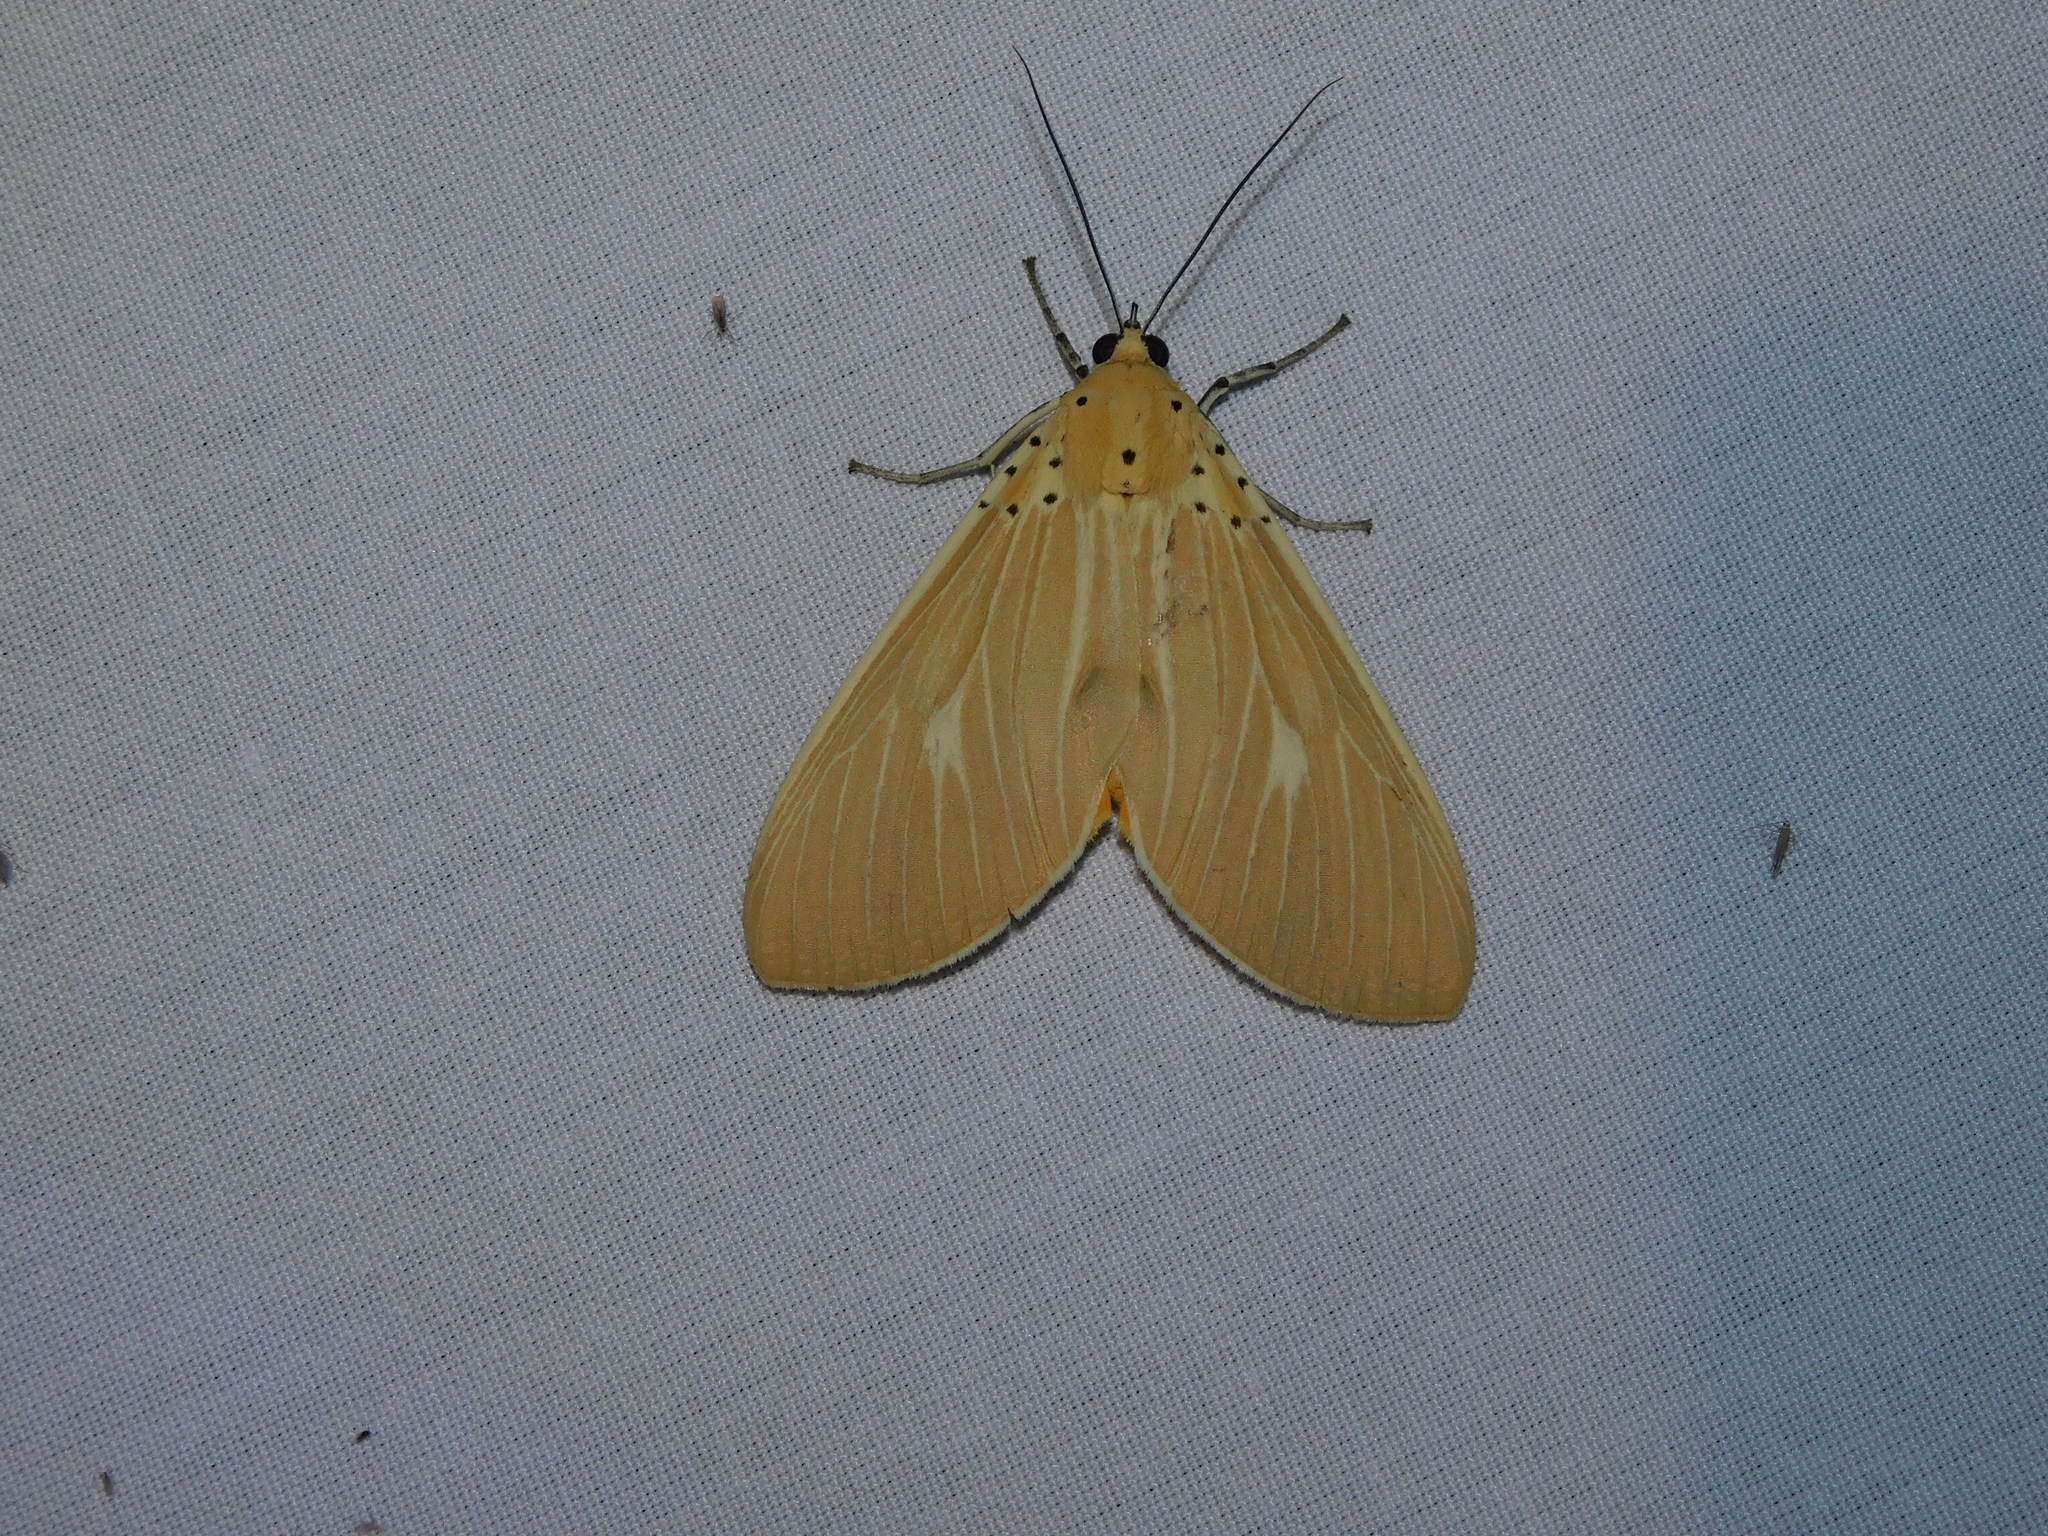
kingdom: Animalia
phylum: Arthropoda
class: Insecta
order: Lepidoptera
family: Erebidae
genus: Asota
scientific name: Asota producta
